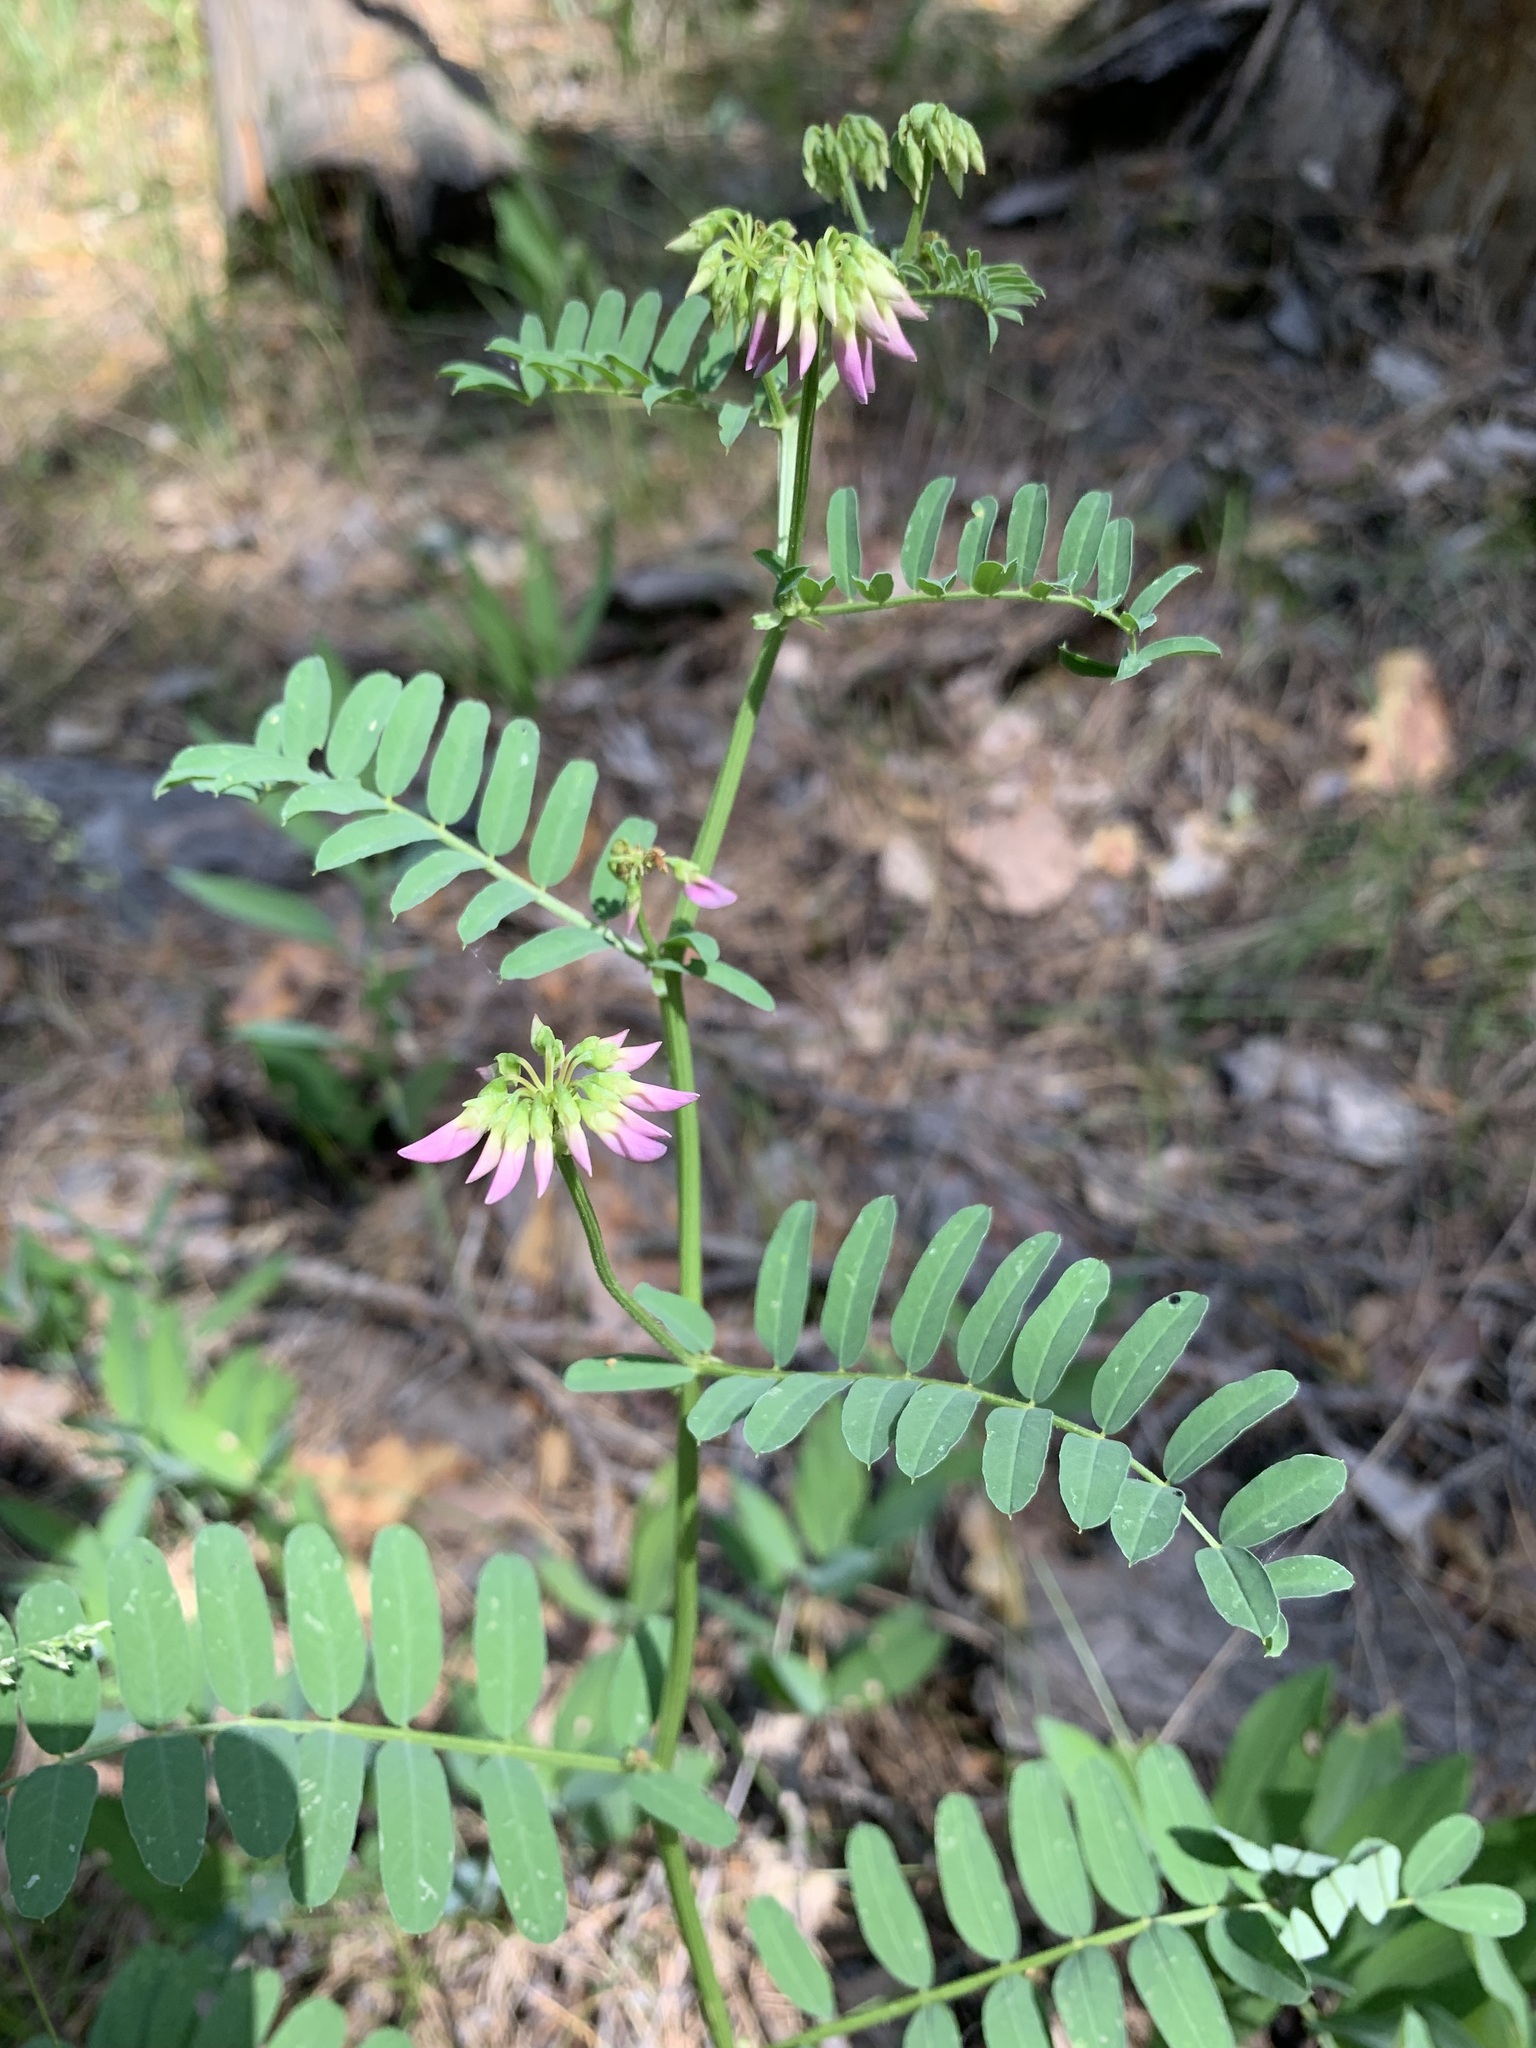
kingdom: Plantae
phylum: Tracheophyta
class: Magnoliopsida
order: Fabales
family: Fabaceae
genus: Coronilla
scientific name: Coronilla varia
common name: Crownvetch
